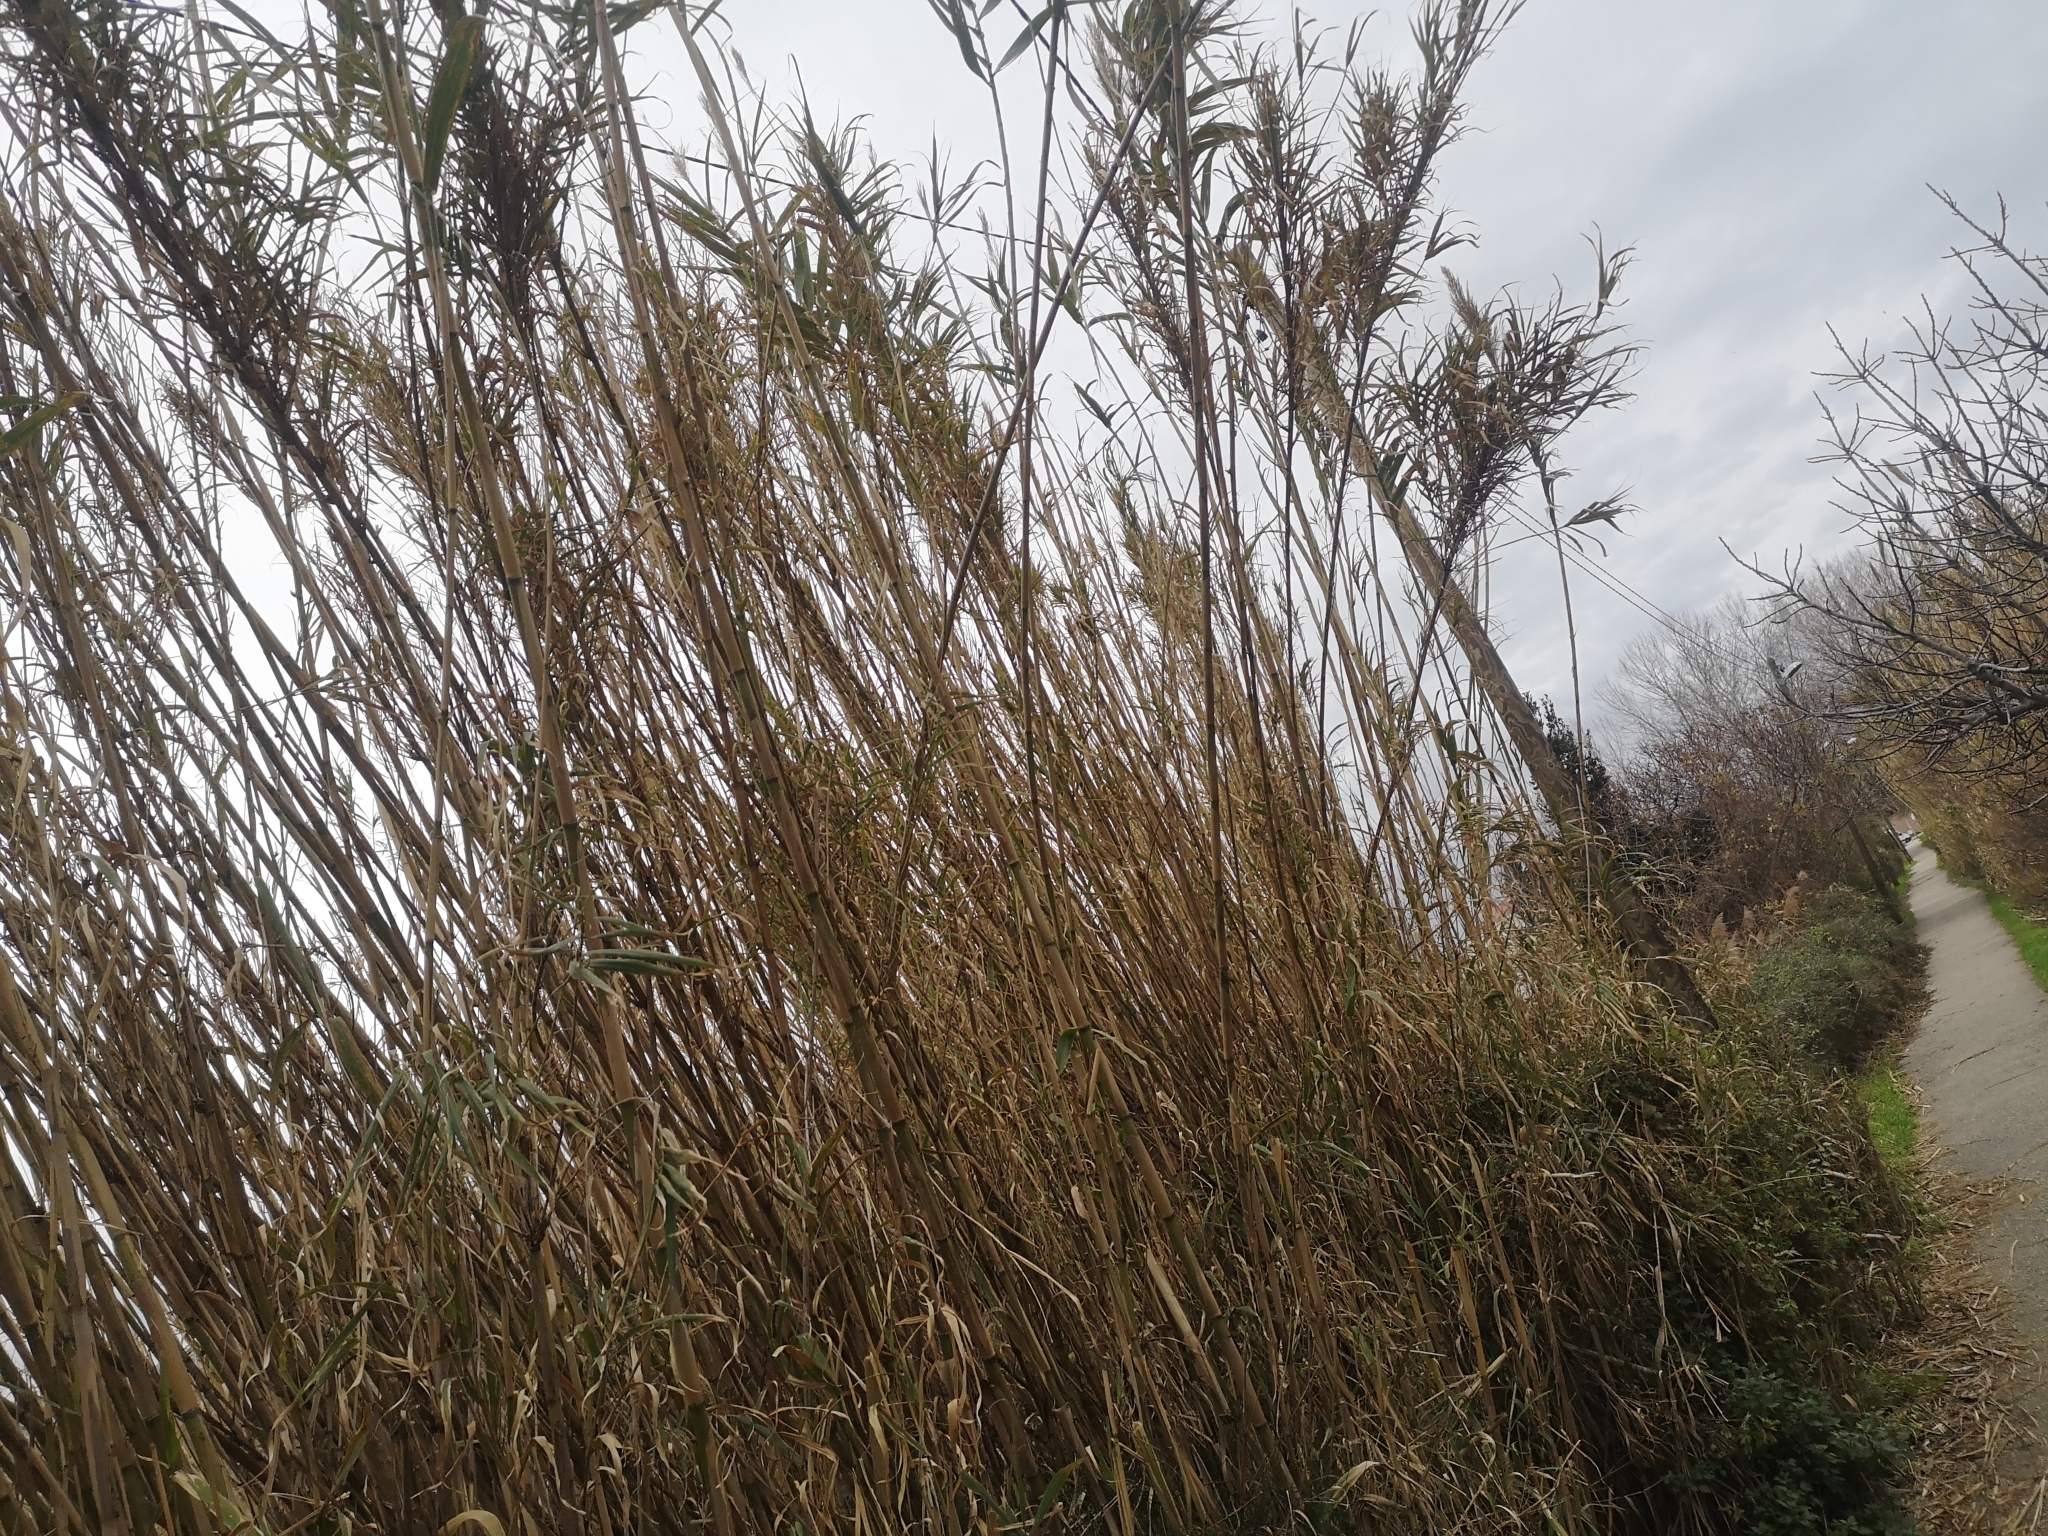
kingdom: Plantae
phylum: Tracheophyta
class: Liliopsida
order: Poales
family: Poaceae
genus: Arundo
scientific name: Arundo donax
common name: Giant reed
